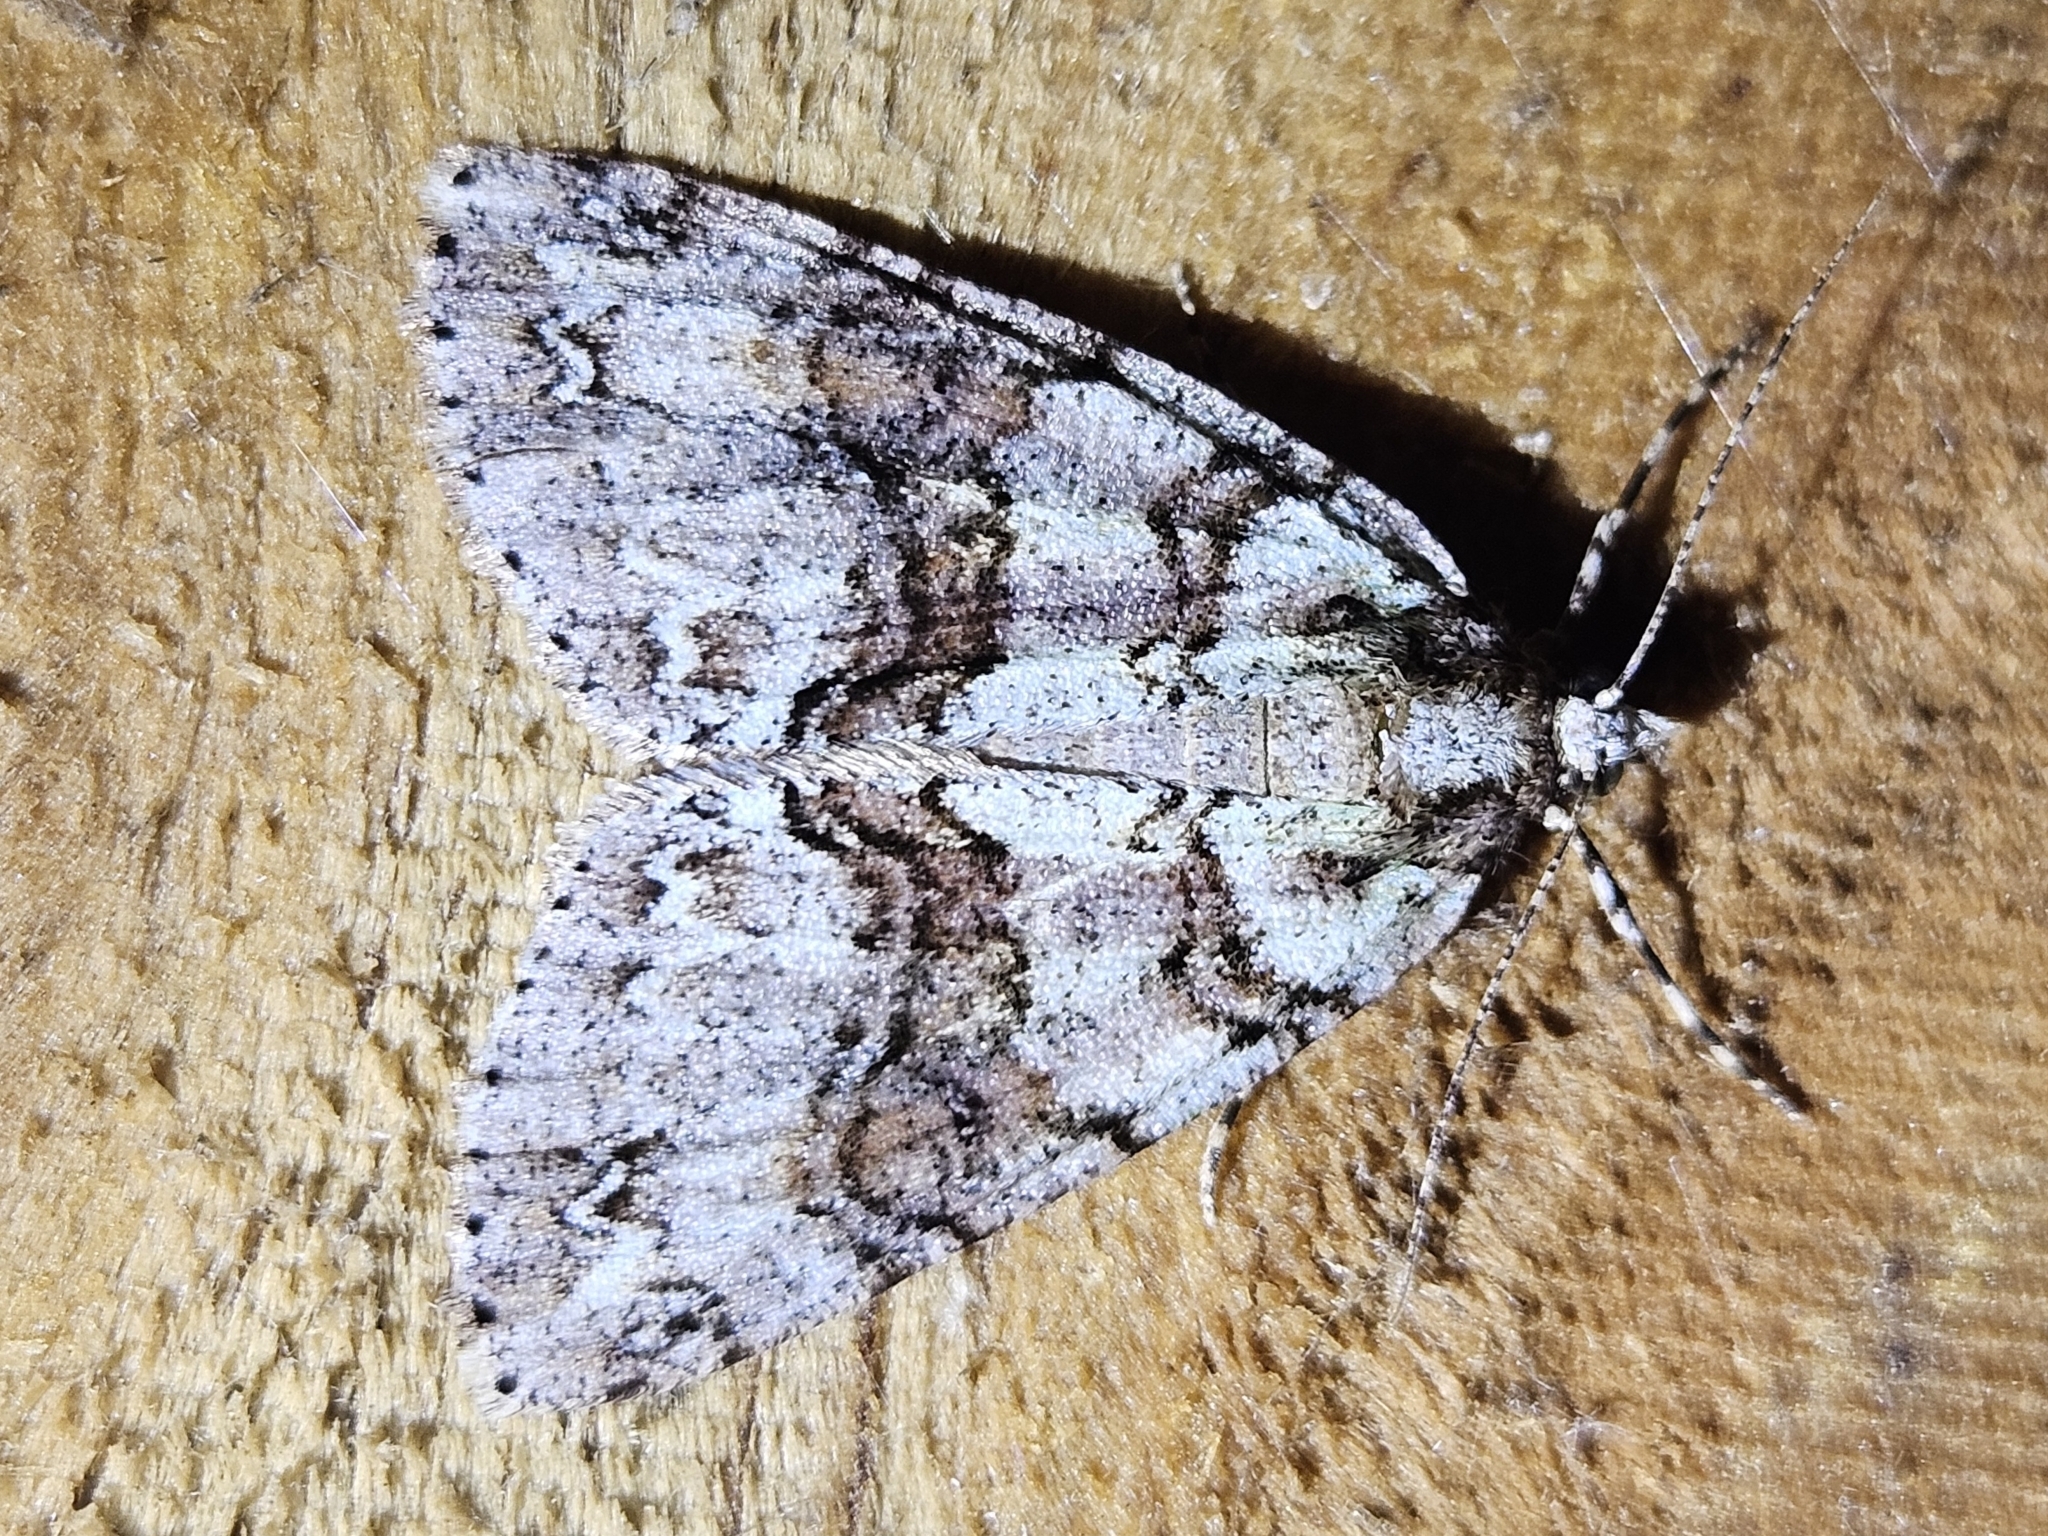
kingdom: Animalia
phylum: Arthropoda
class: Insecta
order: Lepidoptera
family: Geometridae
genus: Pseudocoremia
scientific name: Pseudocoremia suavis
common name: Common forest looper
